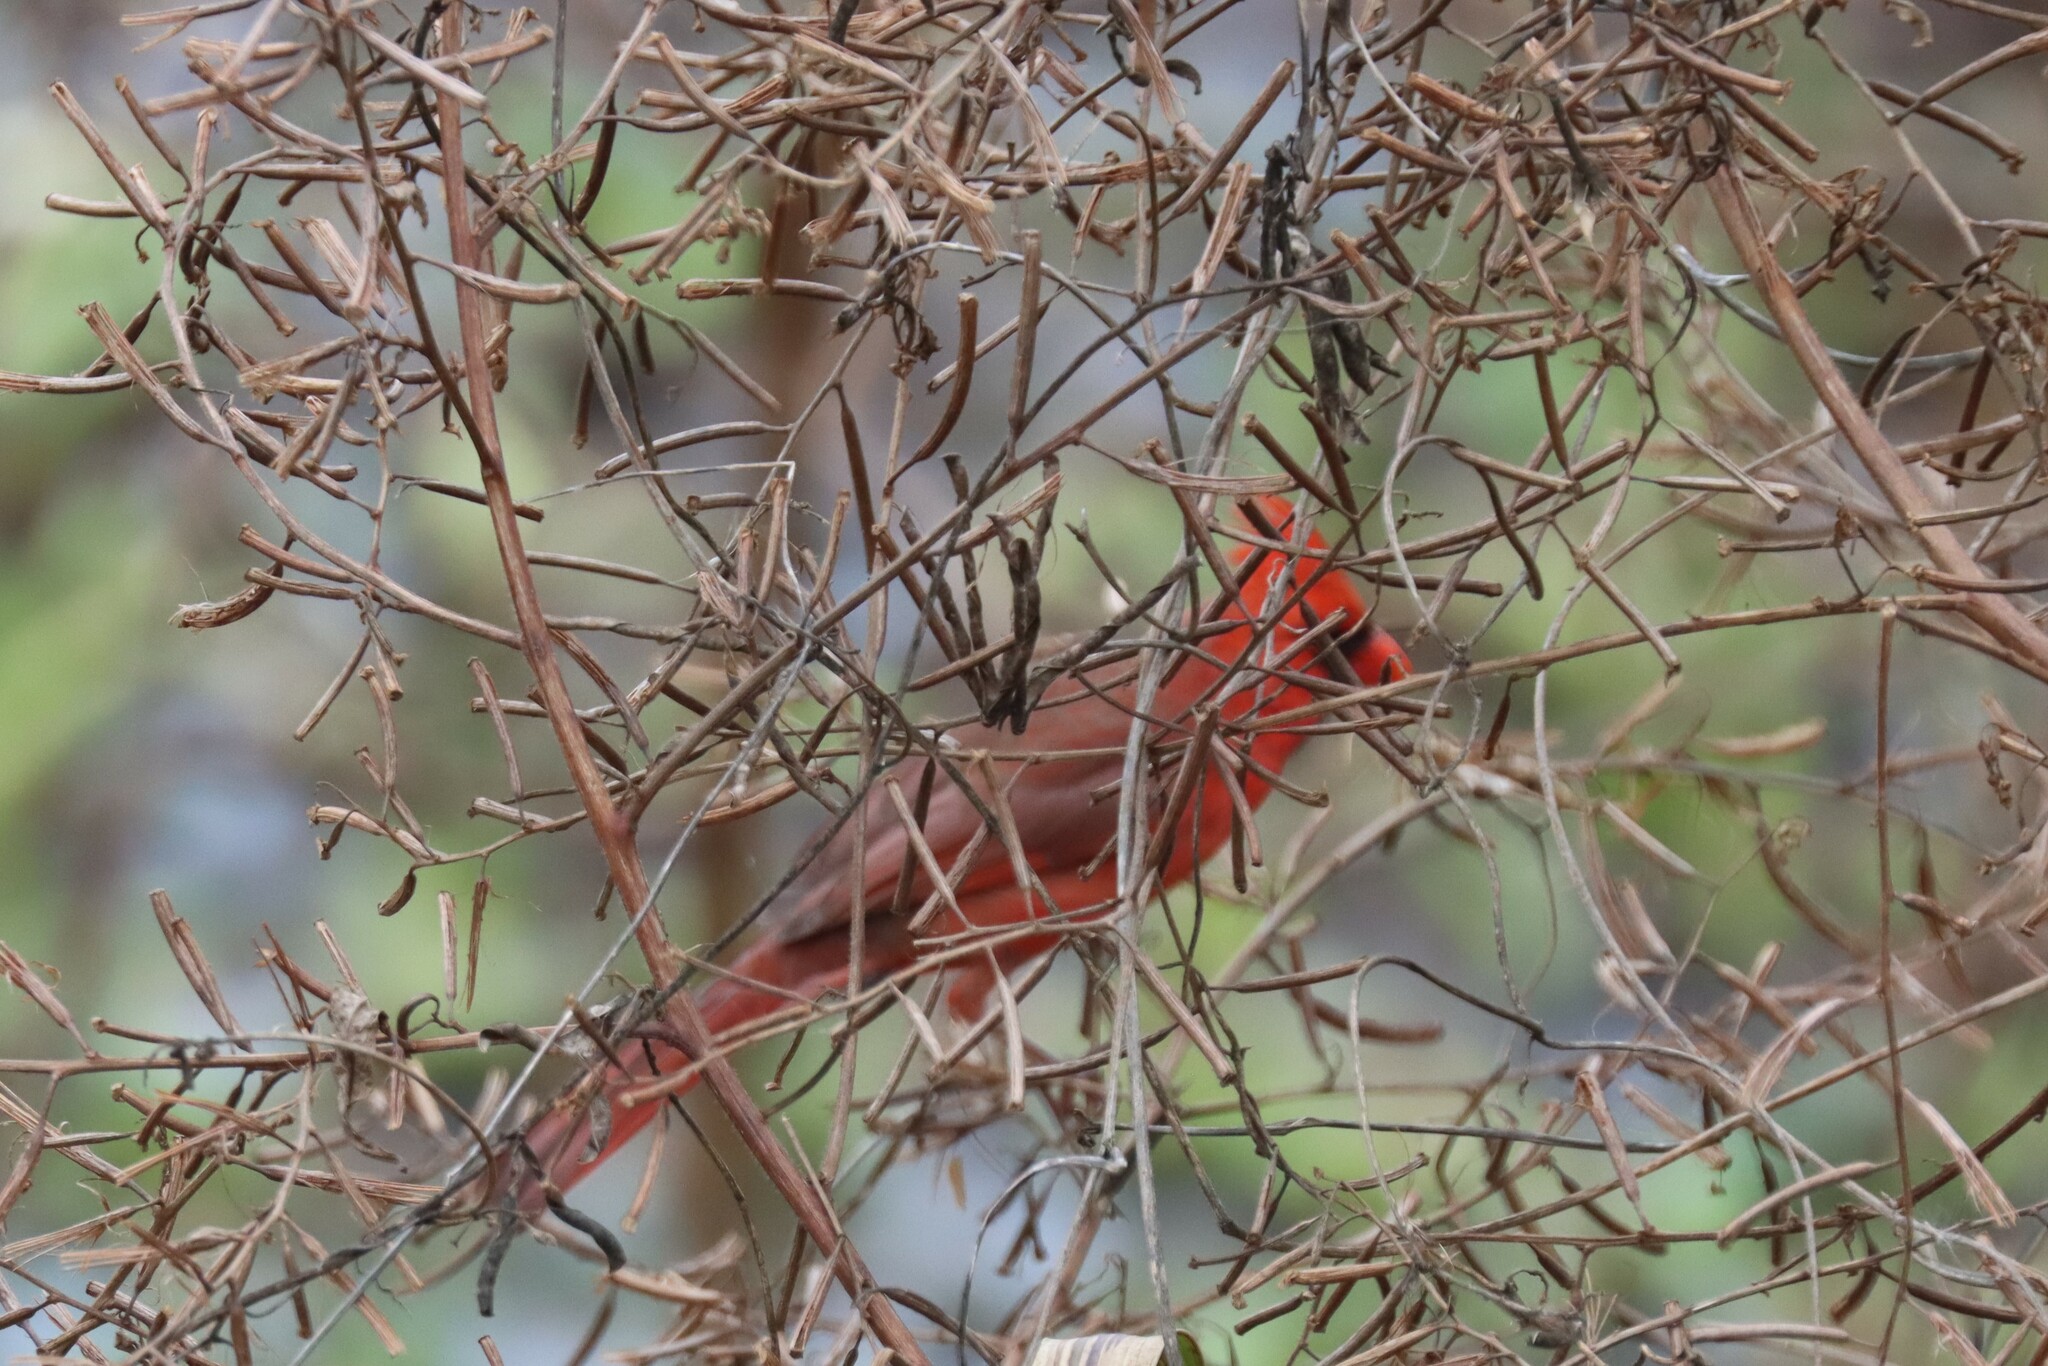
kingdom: Animalia
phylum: Chordata
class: Aves
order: Passeriformes
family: Cardinalidae
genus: Cardinalis
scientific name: Cardinalis cardinalis
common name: Northern cardinal
